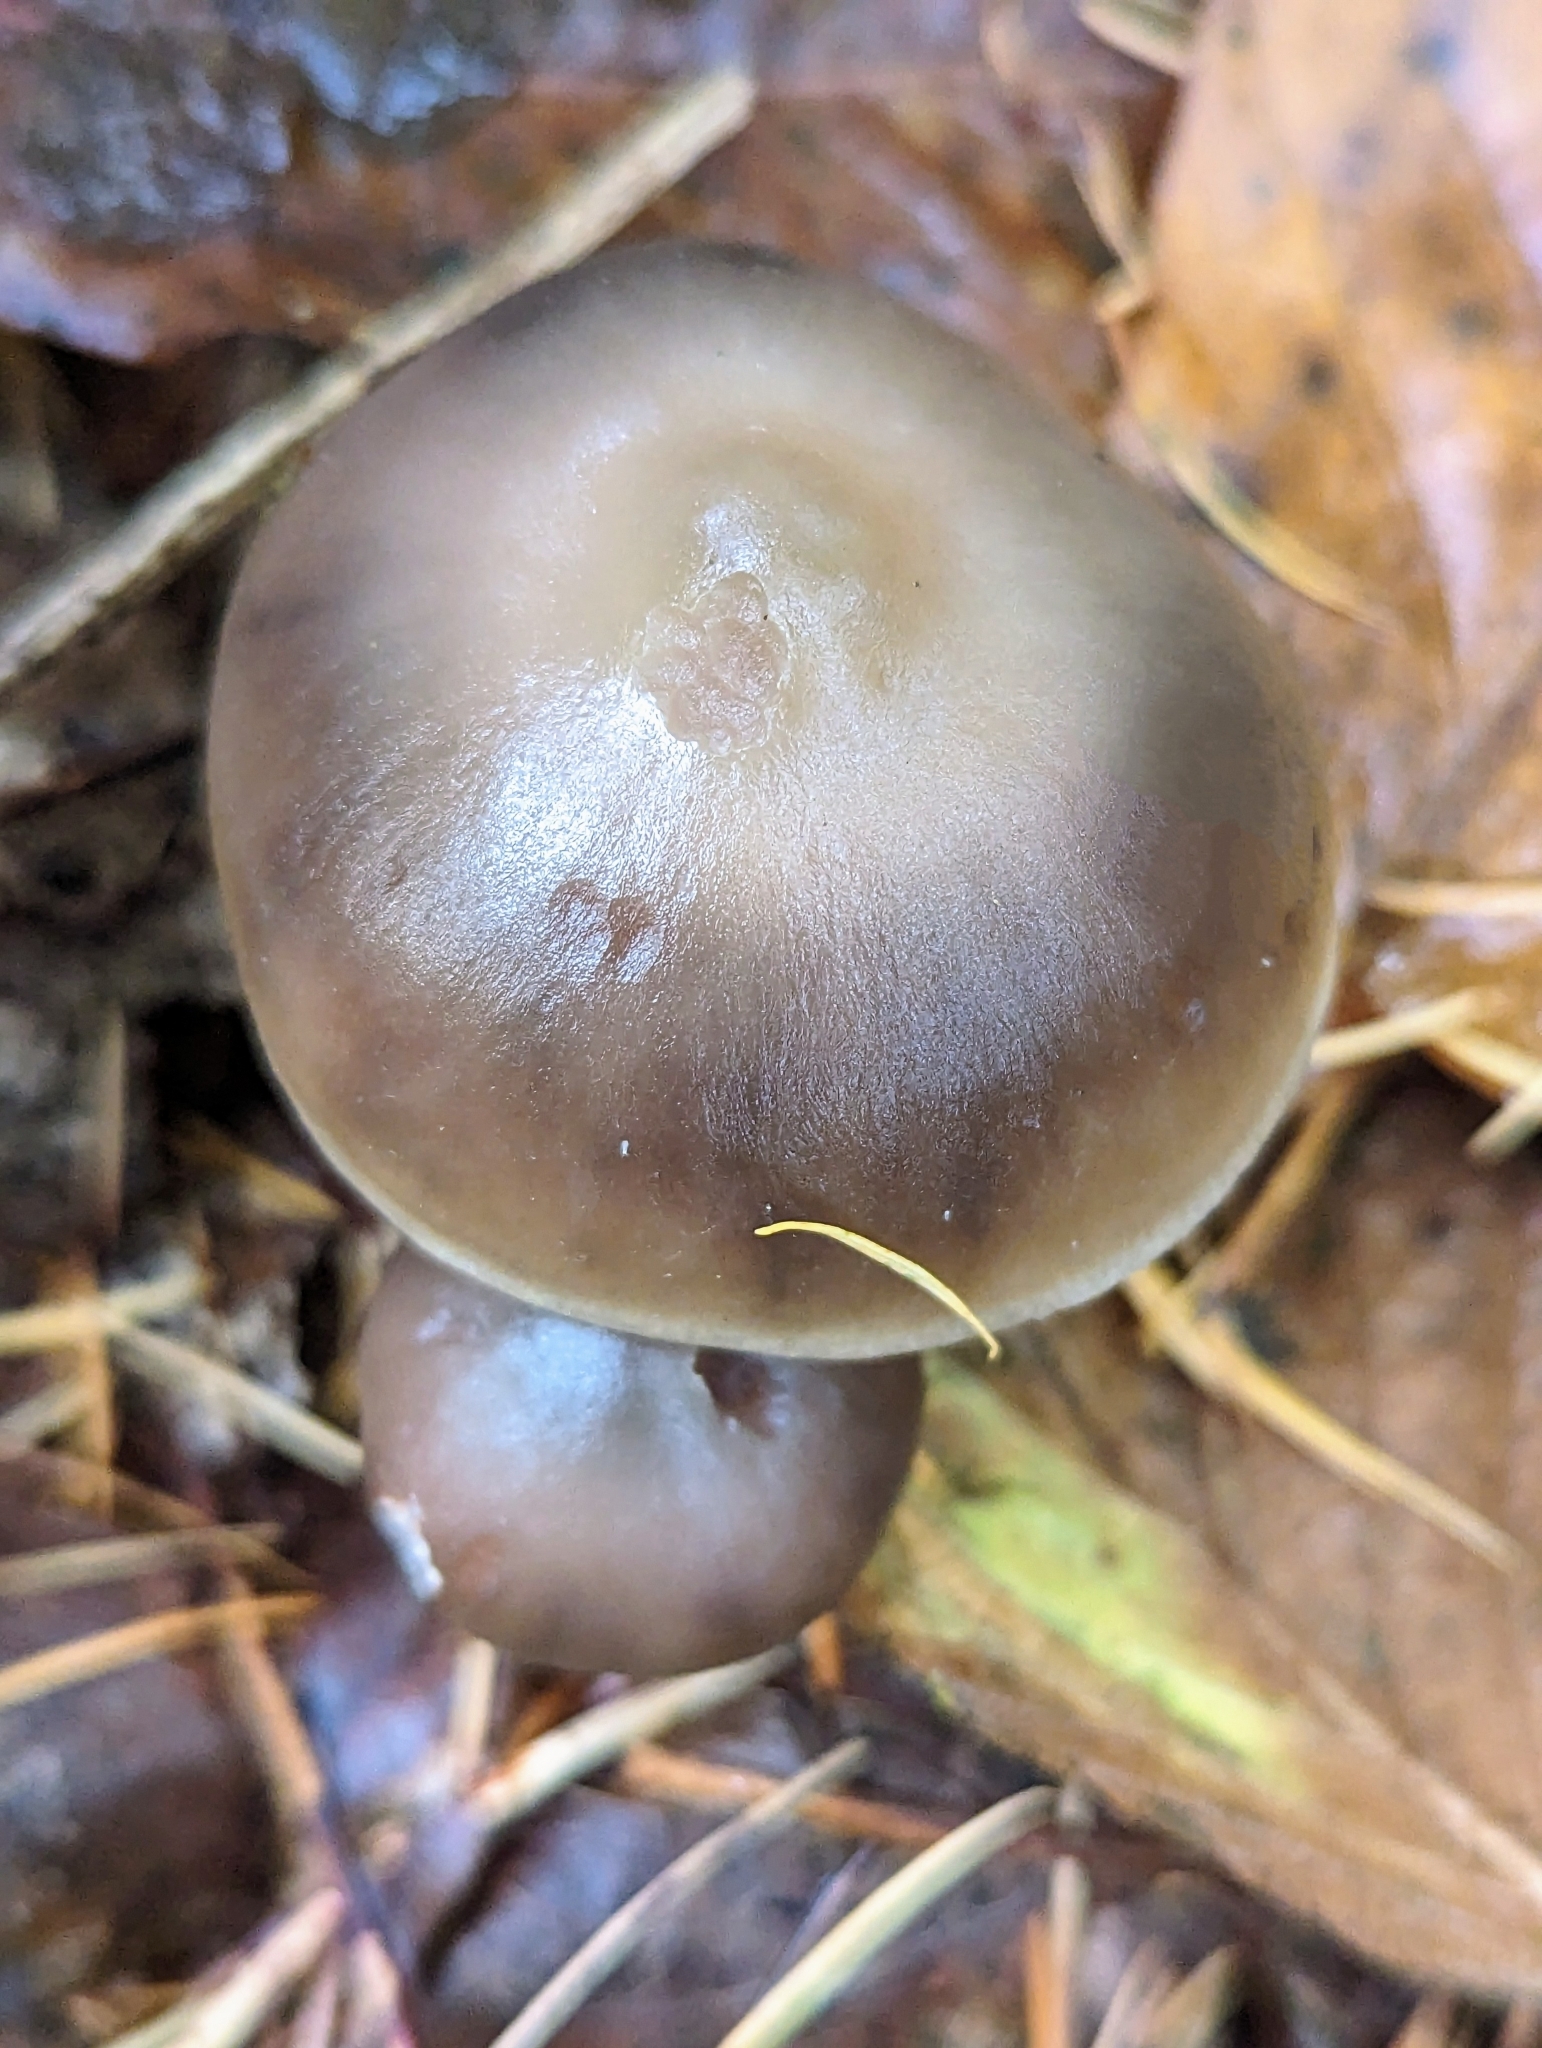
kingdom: Fungi
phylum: Basidiomycota
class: Agaricomycetes
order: Agaricales
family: Omphalotaceae
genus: Rhodocollybia
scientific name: Rhodocollybia butyracea
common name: Butter cap
